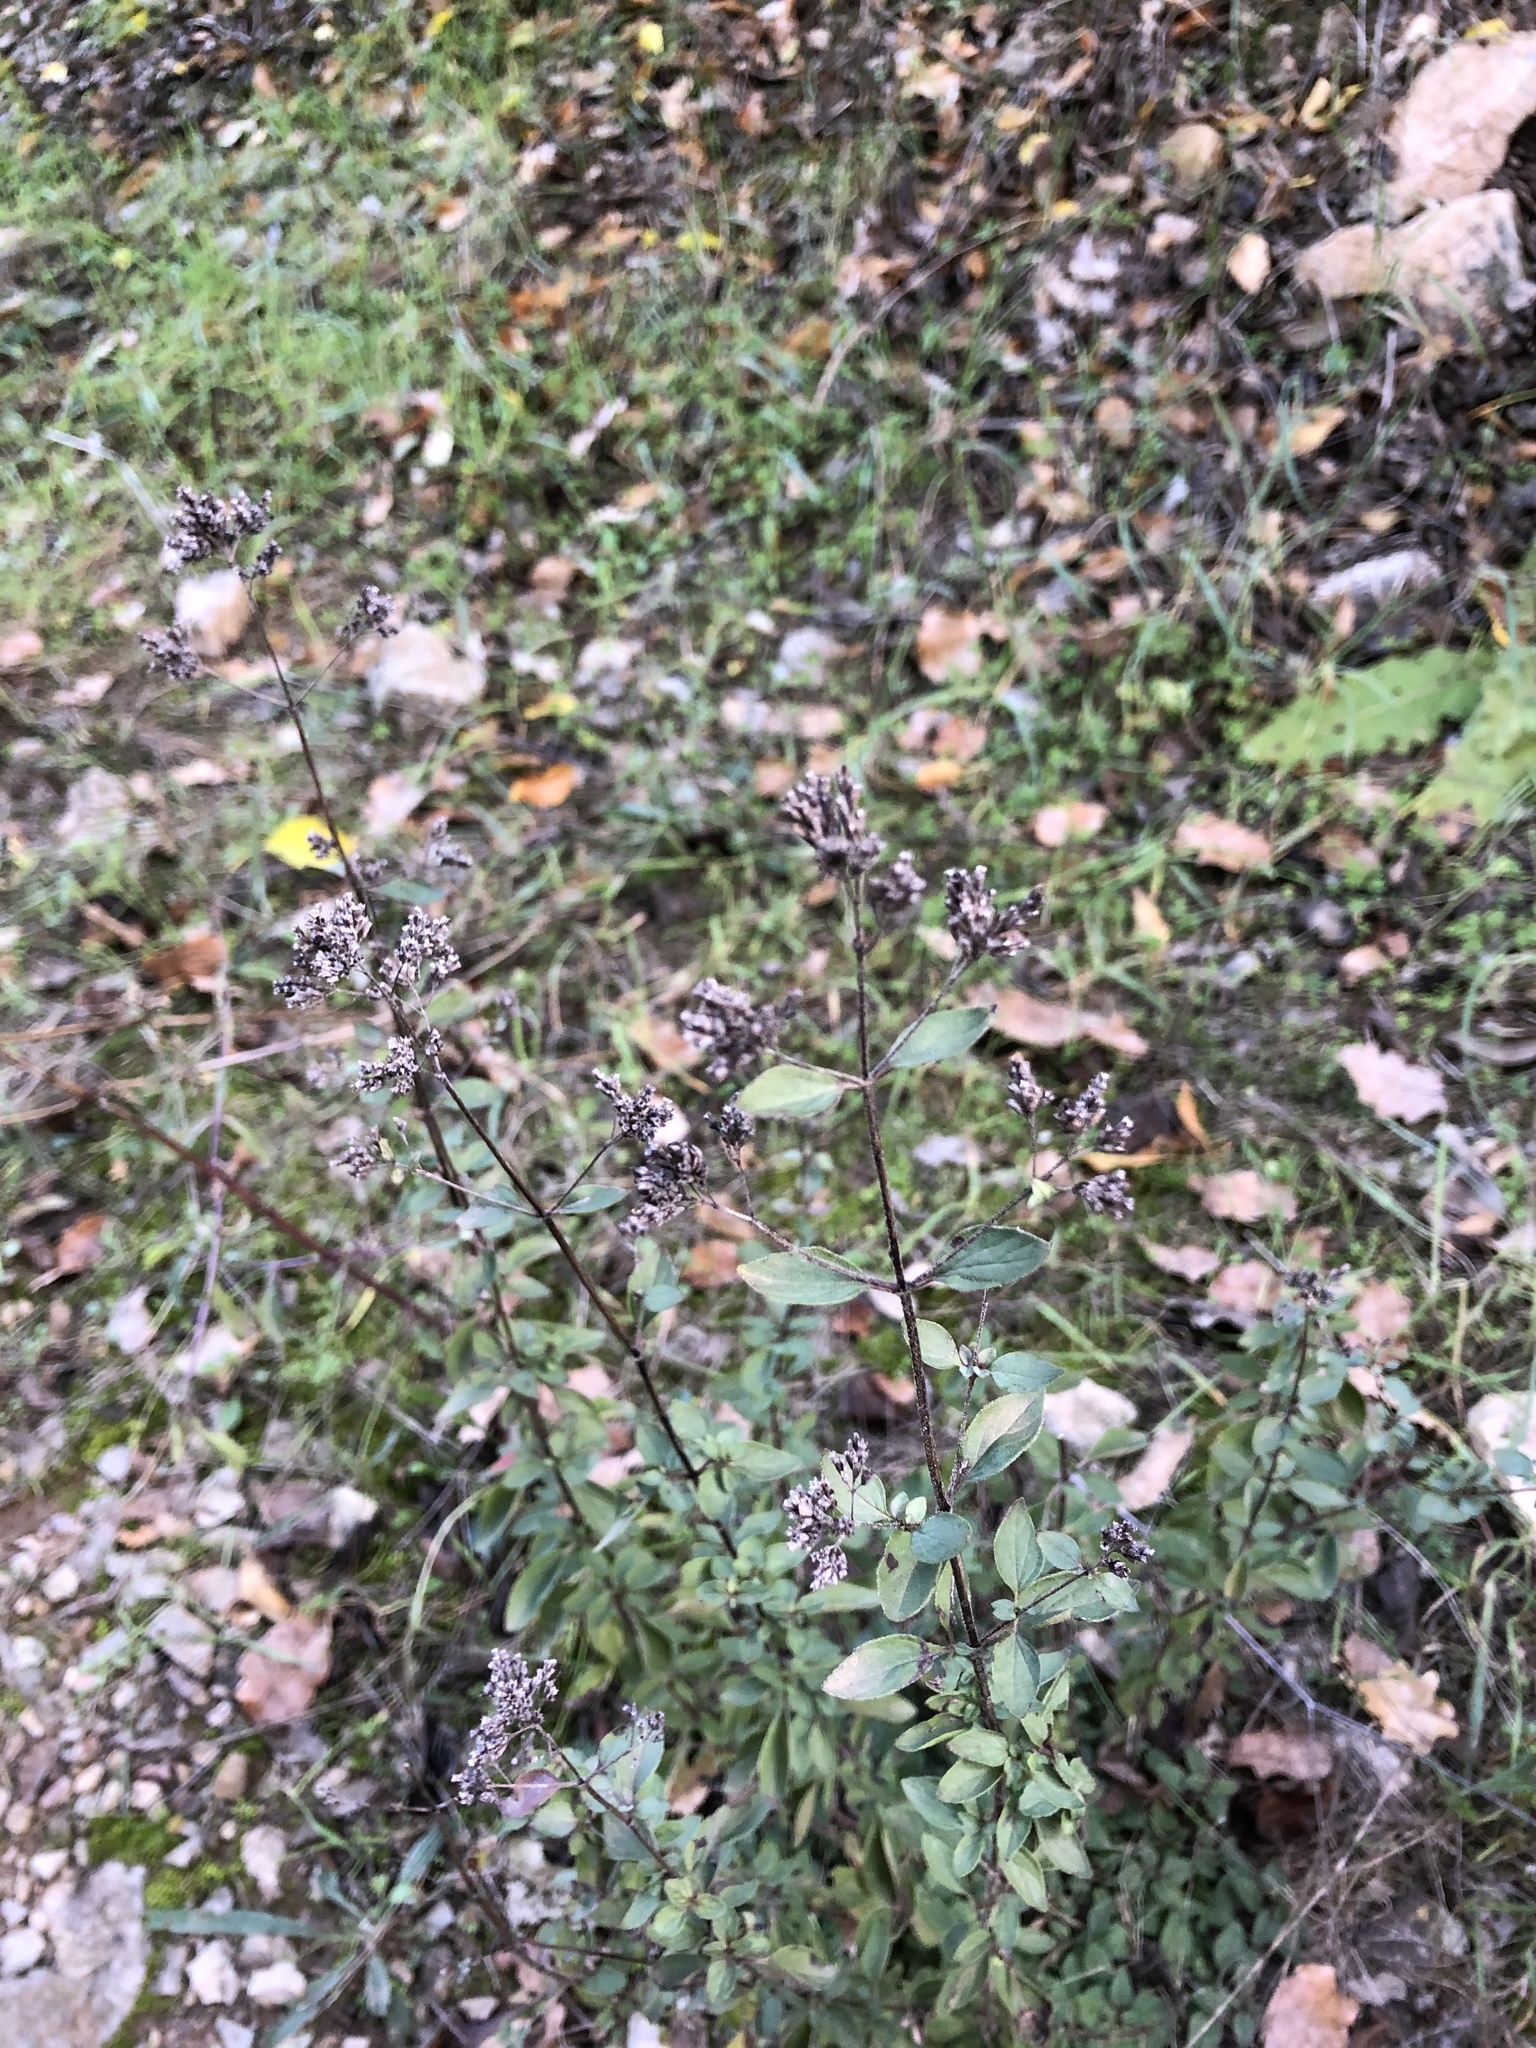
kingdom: Plantae
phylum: Tracheophyta
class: Magnoliopsida
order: Lamiales
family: Lamiaceae
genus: Origanum
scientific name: Origanum vulgare
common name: Wild marjoram
